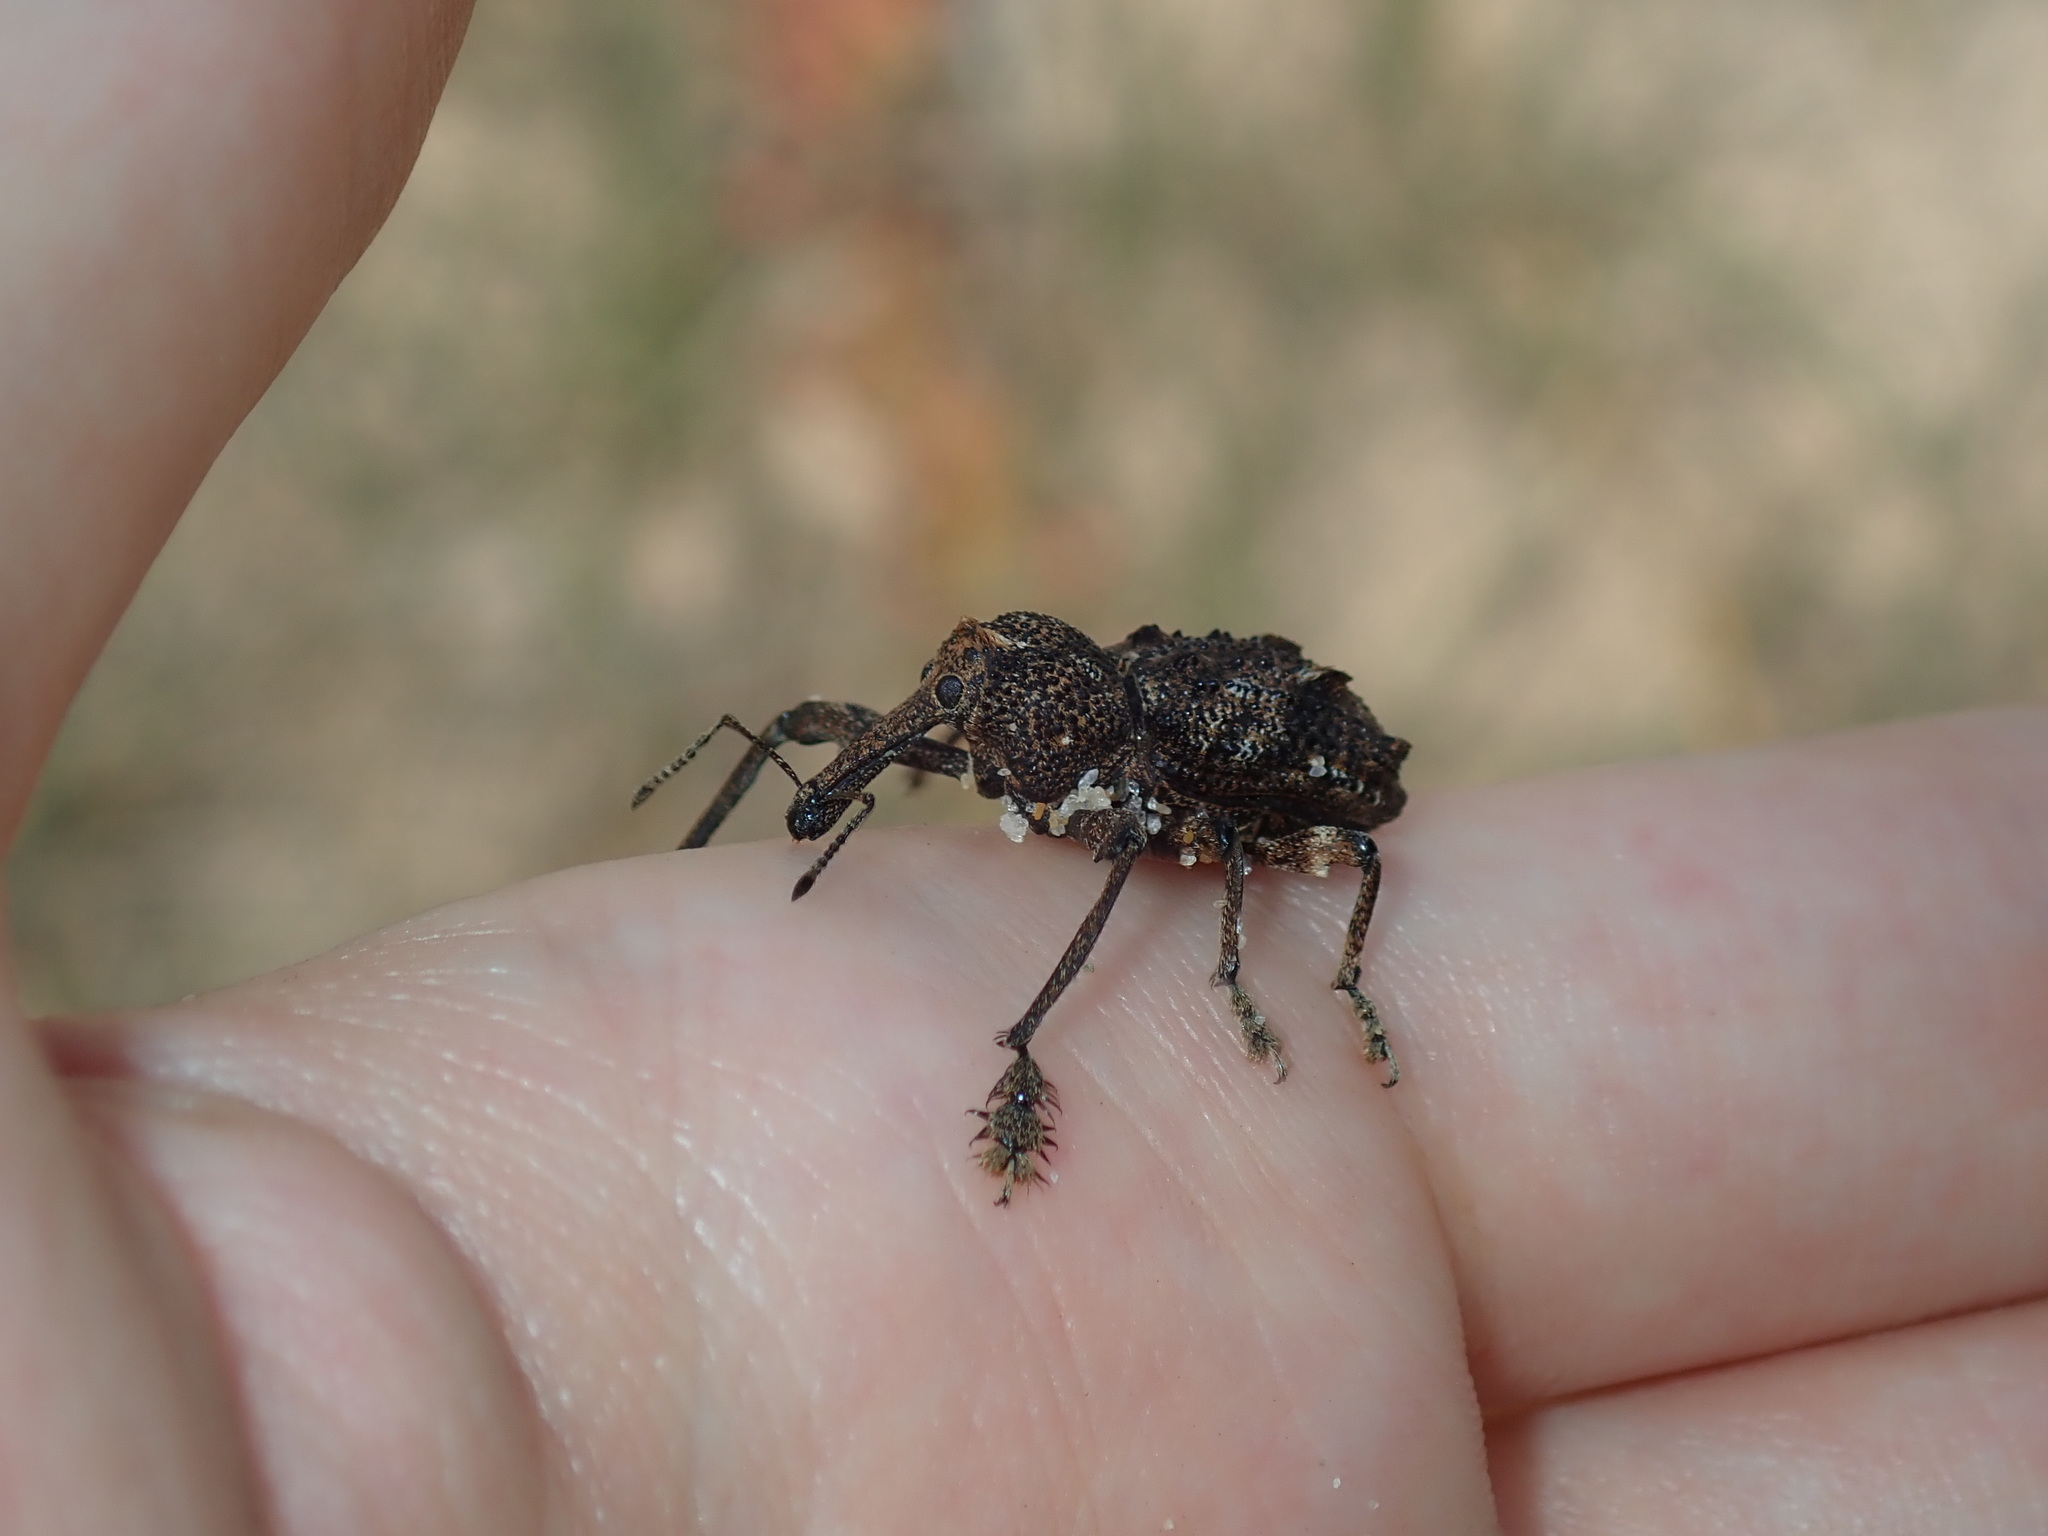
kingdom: Animalia
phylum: Arthropoda
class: Insecta
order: Coleoptera
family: Curculionidae
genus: Orthorhinus
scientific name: Orthorhinus cylindrirostris
